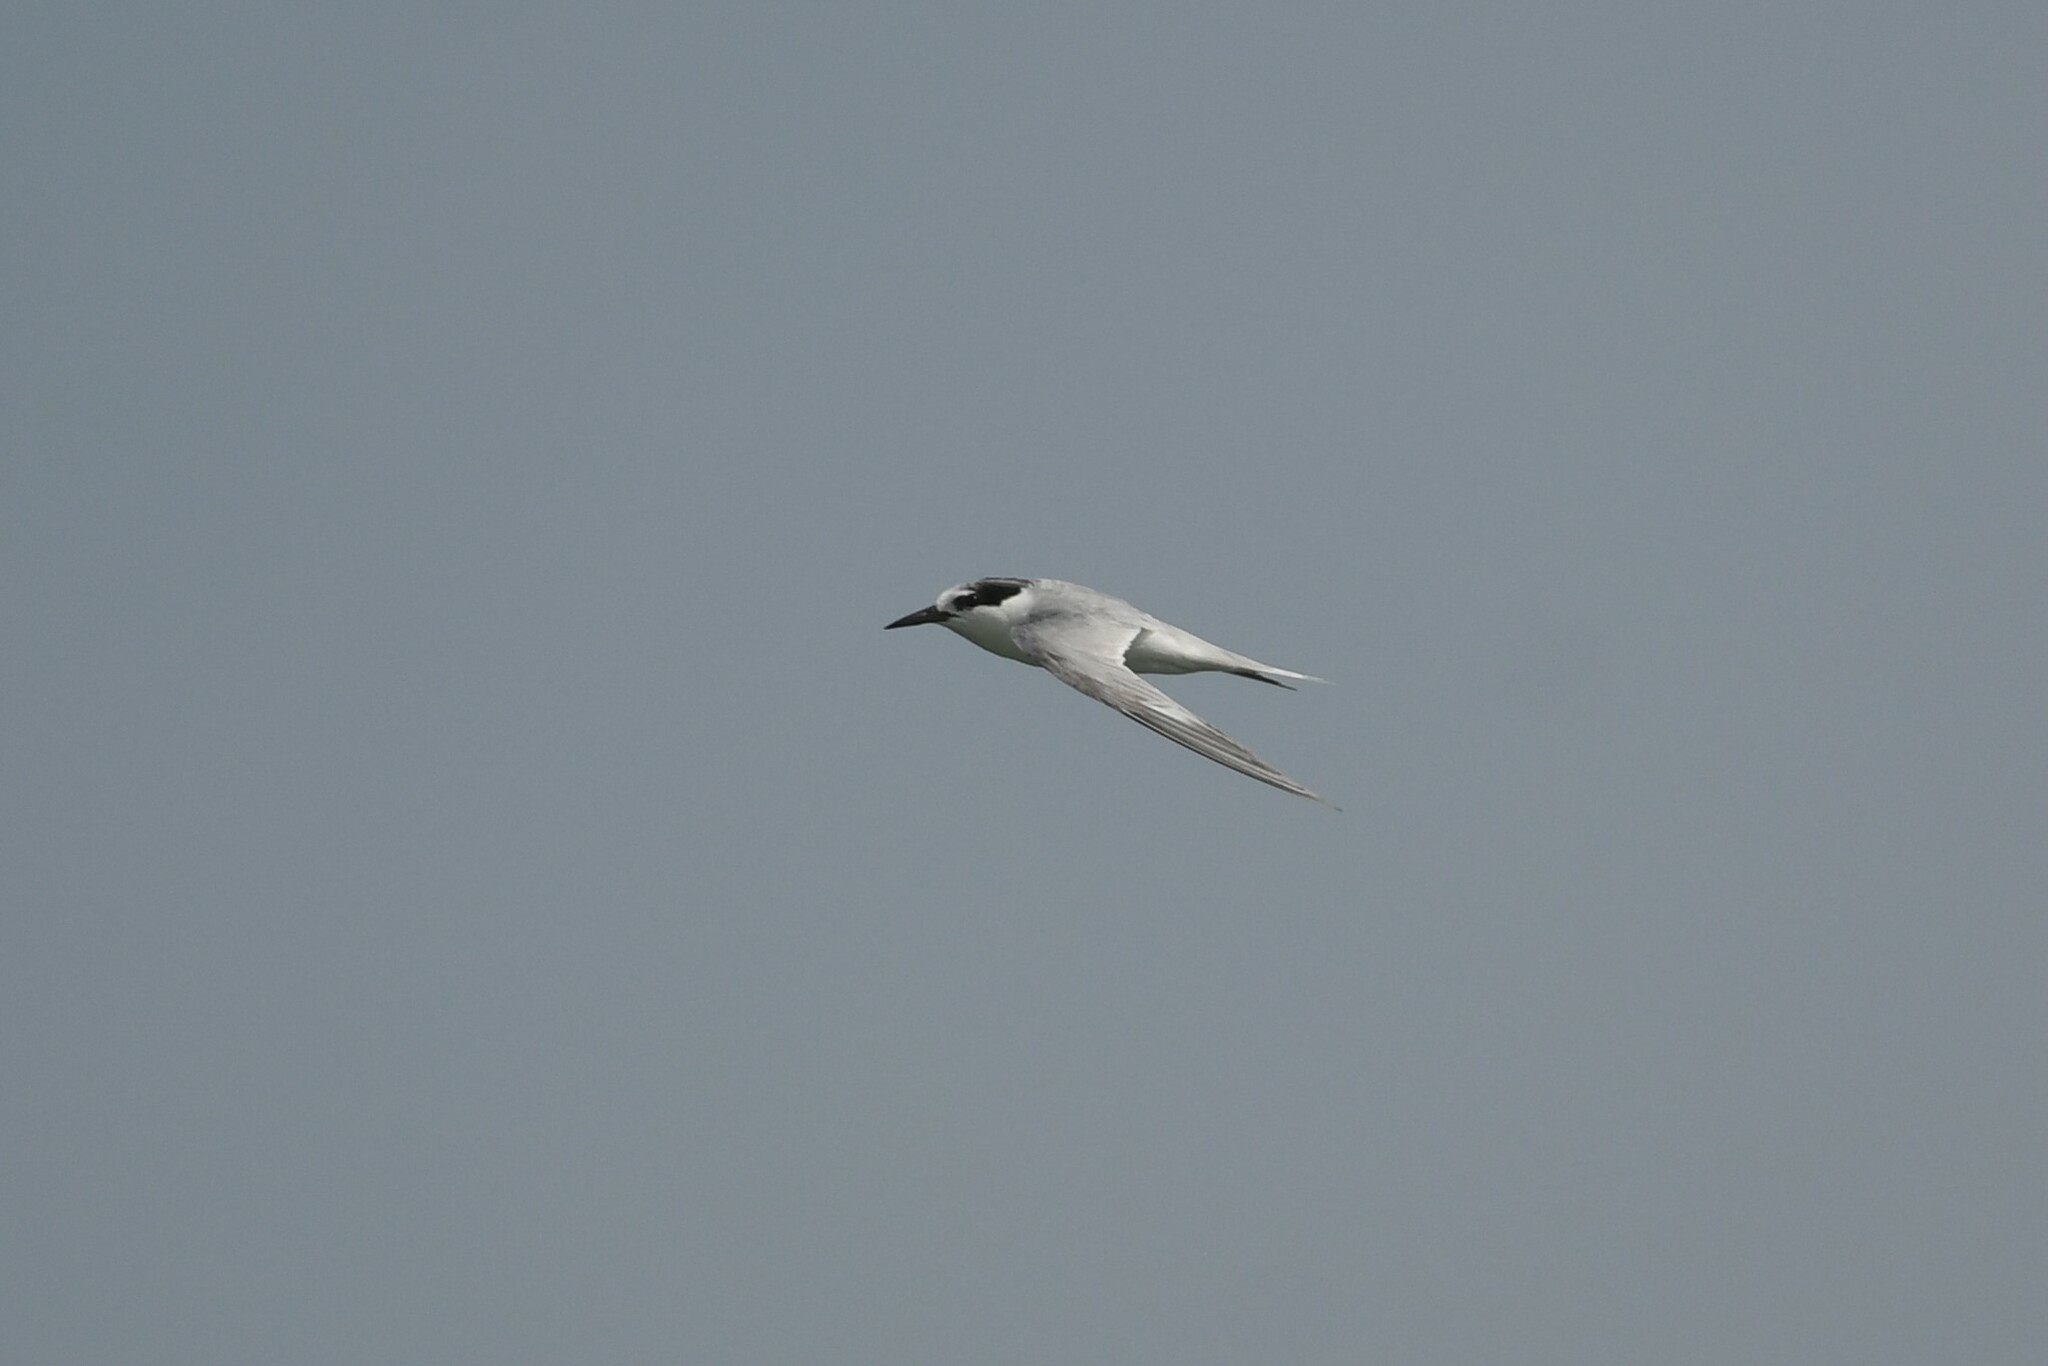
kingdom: Animalia
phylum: Chordata
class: Aves
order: Charadriiformes
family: Laridae
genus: Sternula
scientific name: Sternula albifrons
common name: Little tern
